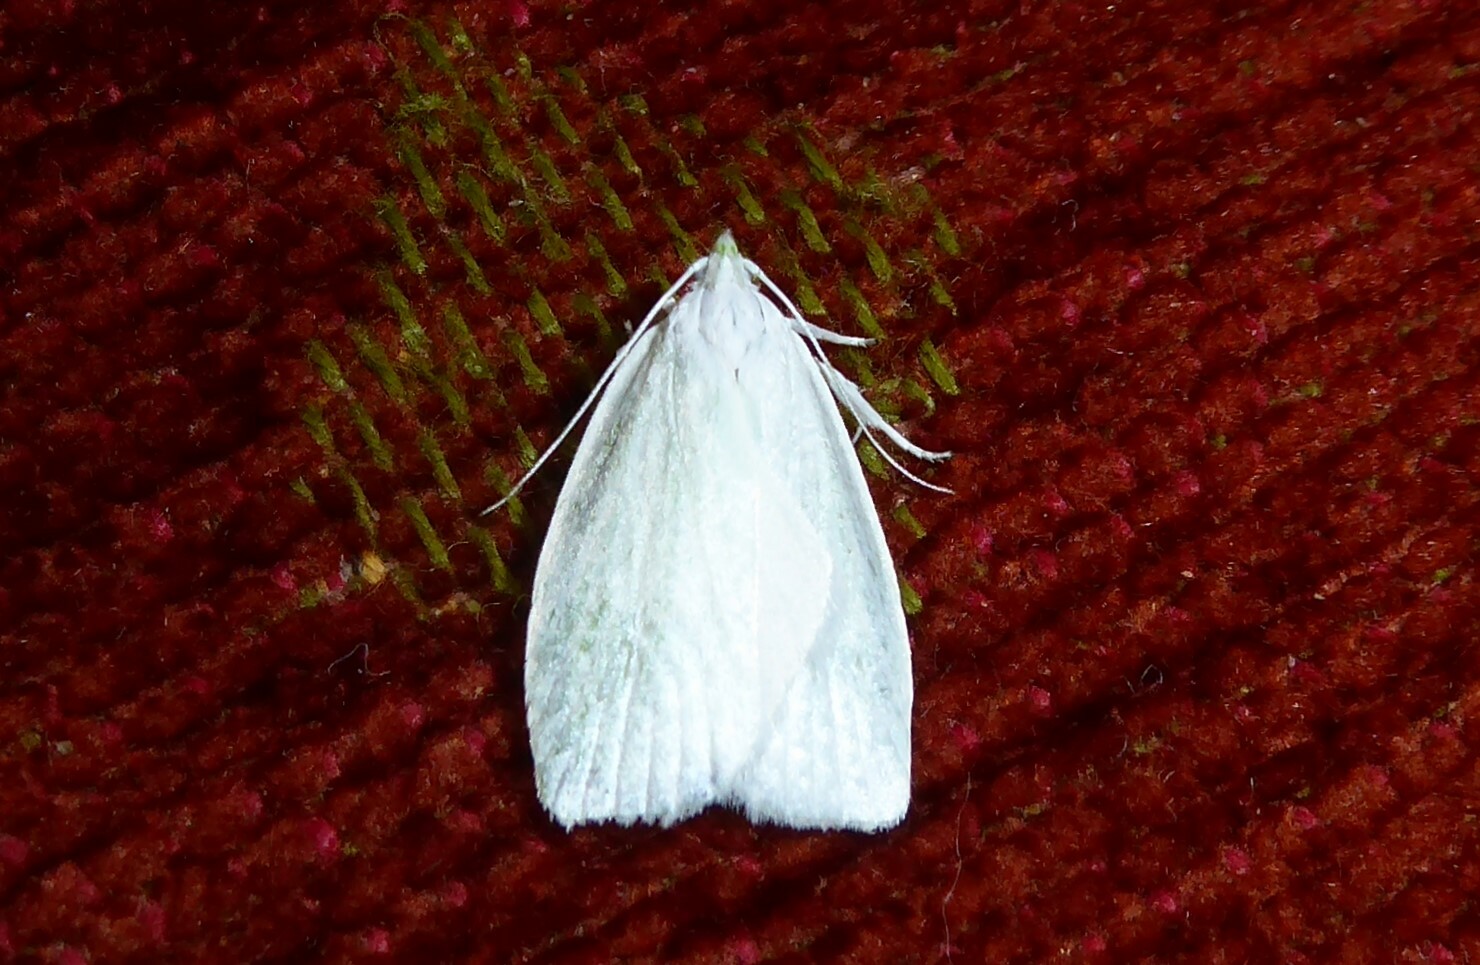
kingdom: Animalia
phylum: Arthropoda
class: Insecta
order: Lepidoptera
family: Oecophoridae
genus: Nymphostola
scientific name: Nymphostola galactina
